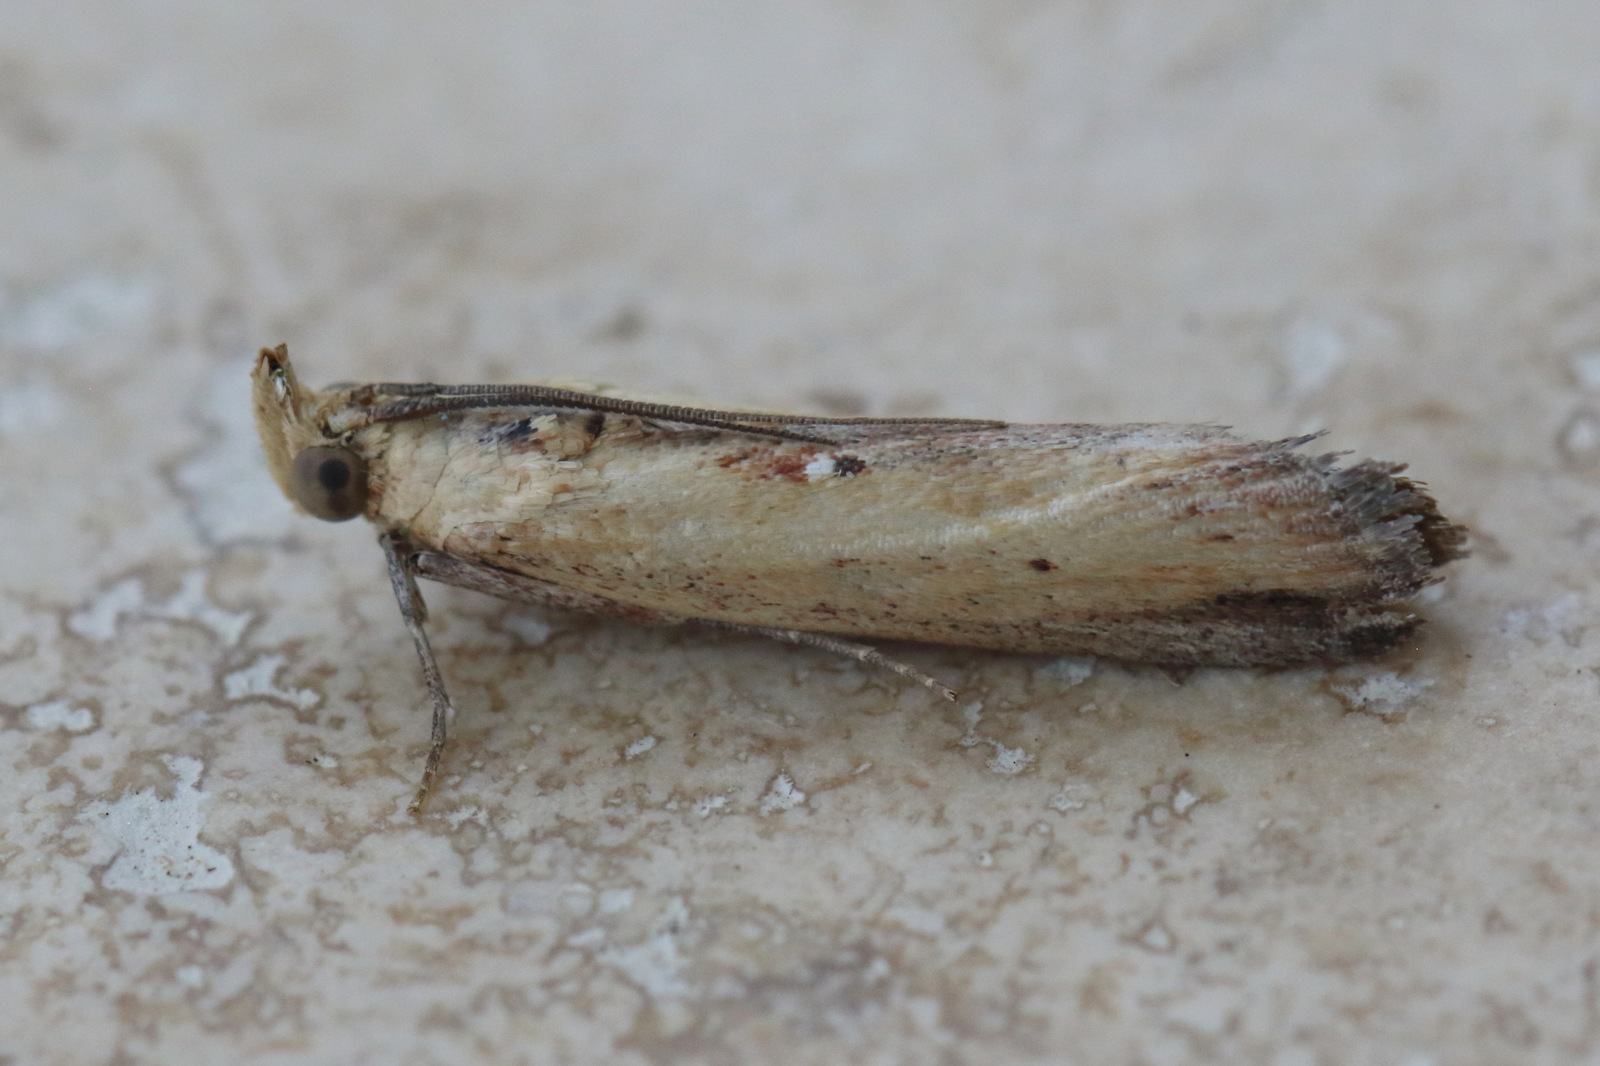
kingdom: Animalia
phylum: Arthropoda
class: Insecta
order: Lepidoptera
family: Pyralidae
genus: Morosaphycita
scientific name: Morosaphycita oculiferella
